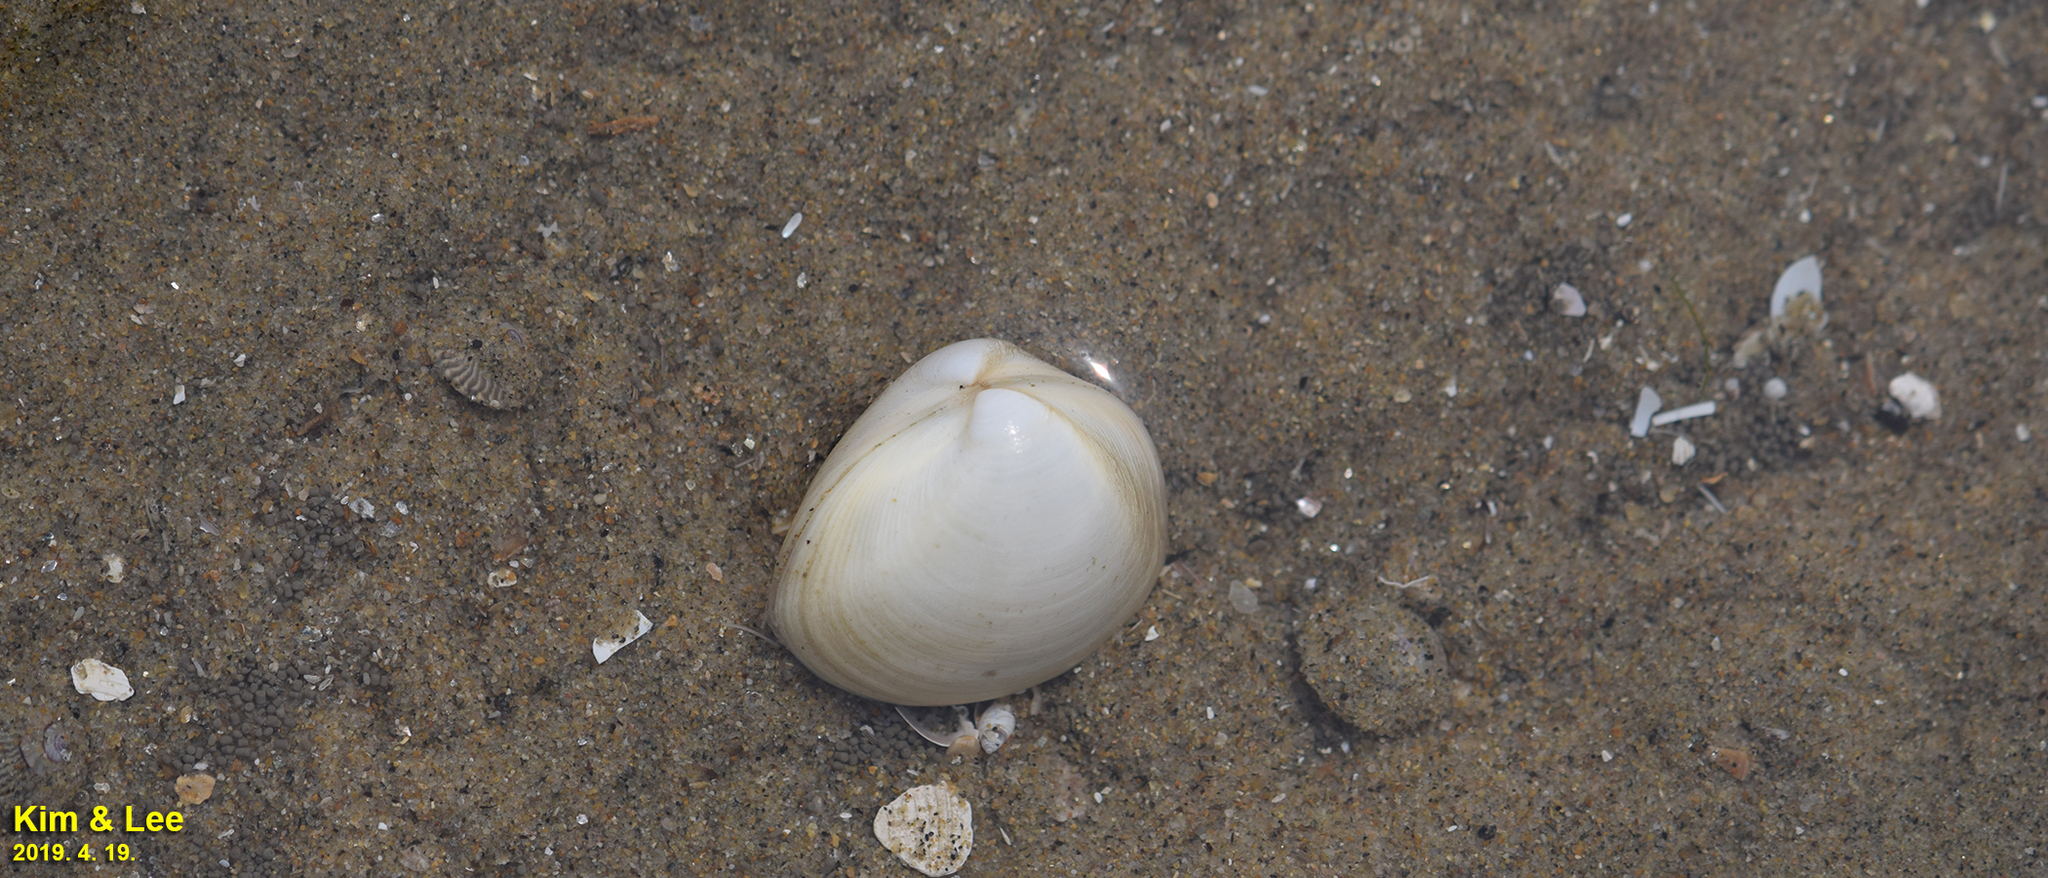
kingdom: Animalia
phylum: Mollusca
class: Bivalvia
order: Venerida
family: Mactridae
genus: Mactra
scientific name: Mactra quadrangularis
